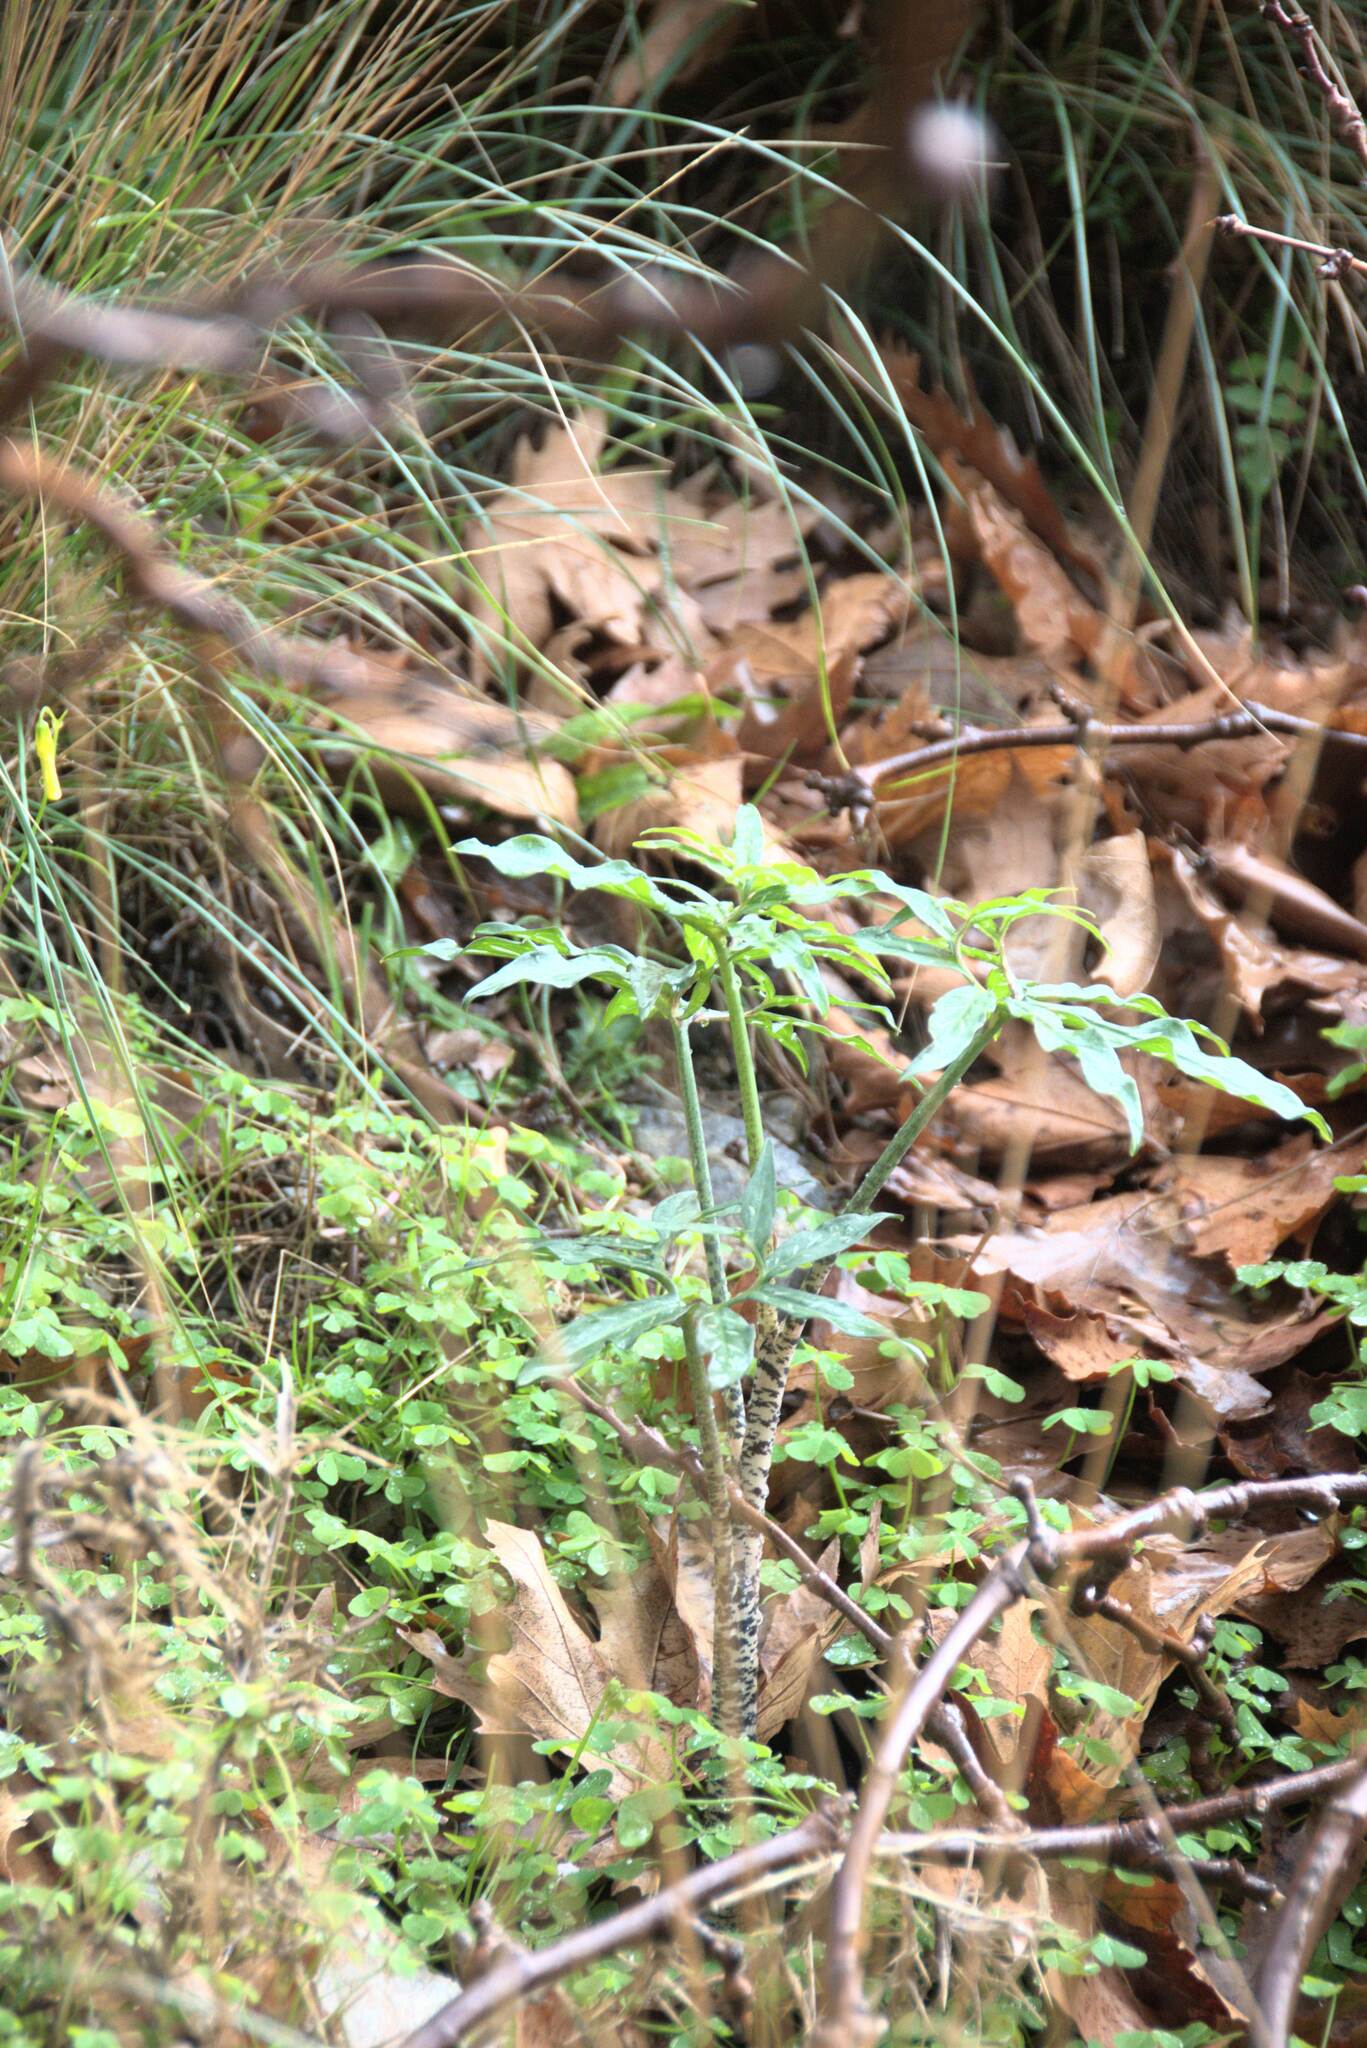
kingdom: Plantae
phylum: Tracheophyta
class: Liliopsida
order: Alismatales
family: Araceae
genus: Dracunculus
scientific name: Dracunculus vulgaris
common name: Dragon arum
